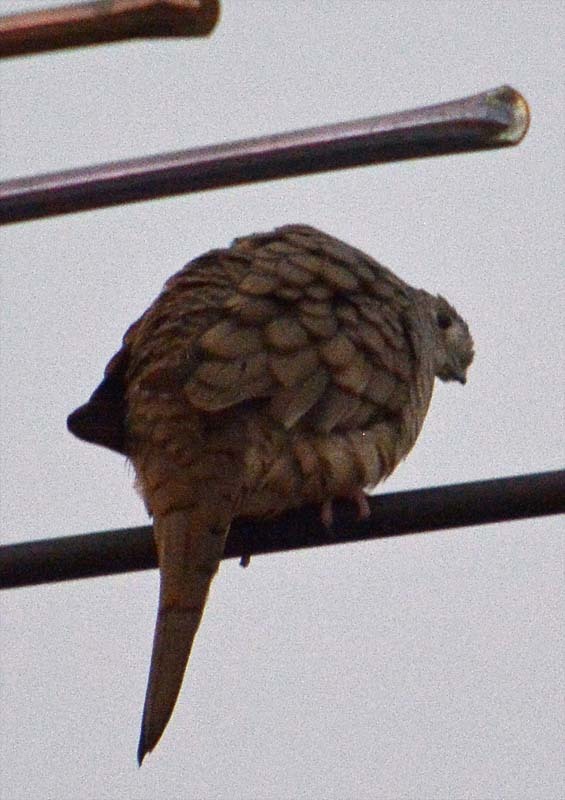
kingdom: Animalia
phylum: Chordata
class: Aves
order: Columbiformes
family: Columbidae
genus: Columbina
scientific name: Columbina inca
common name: Inca dove
